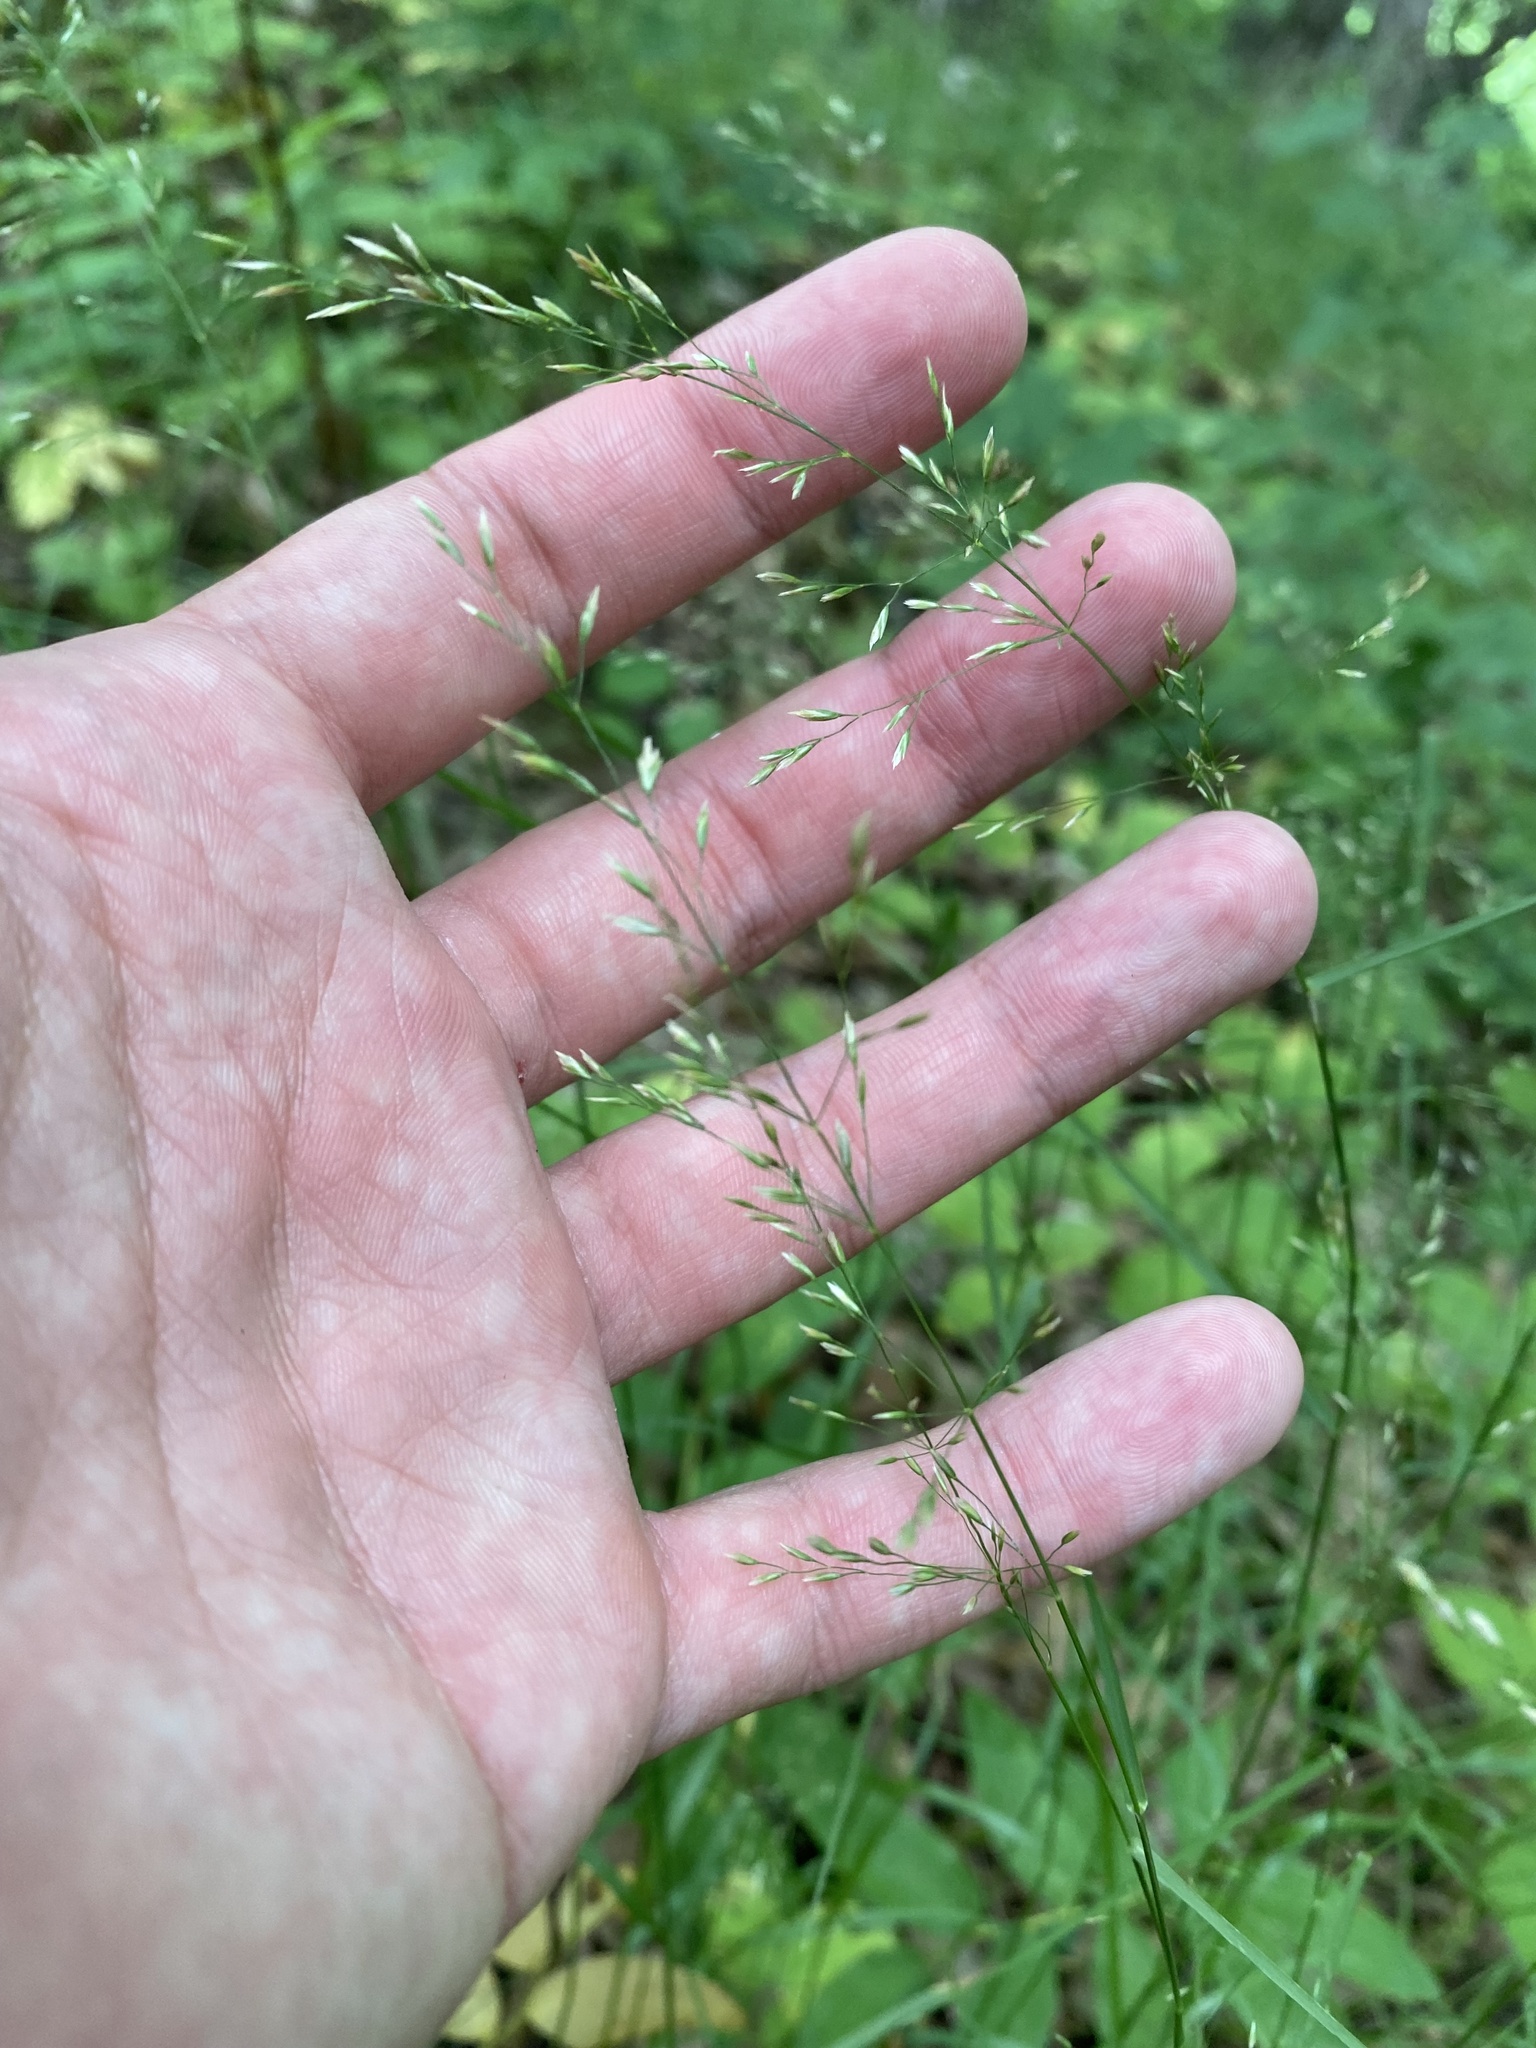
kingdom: Plantae
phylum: Tracheophyta
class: Liliopsida
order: Poales
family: Poaceae
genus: Poa
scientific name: Poa nemoralis
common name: Wood bluegrass
